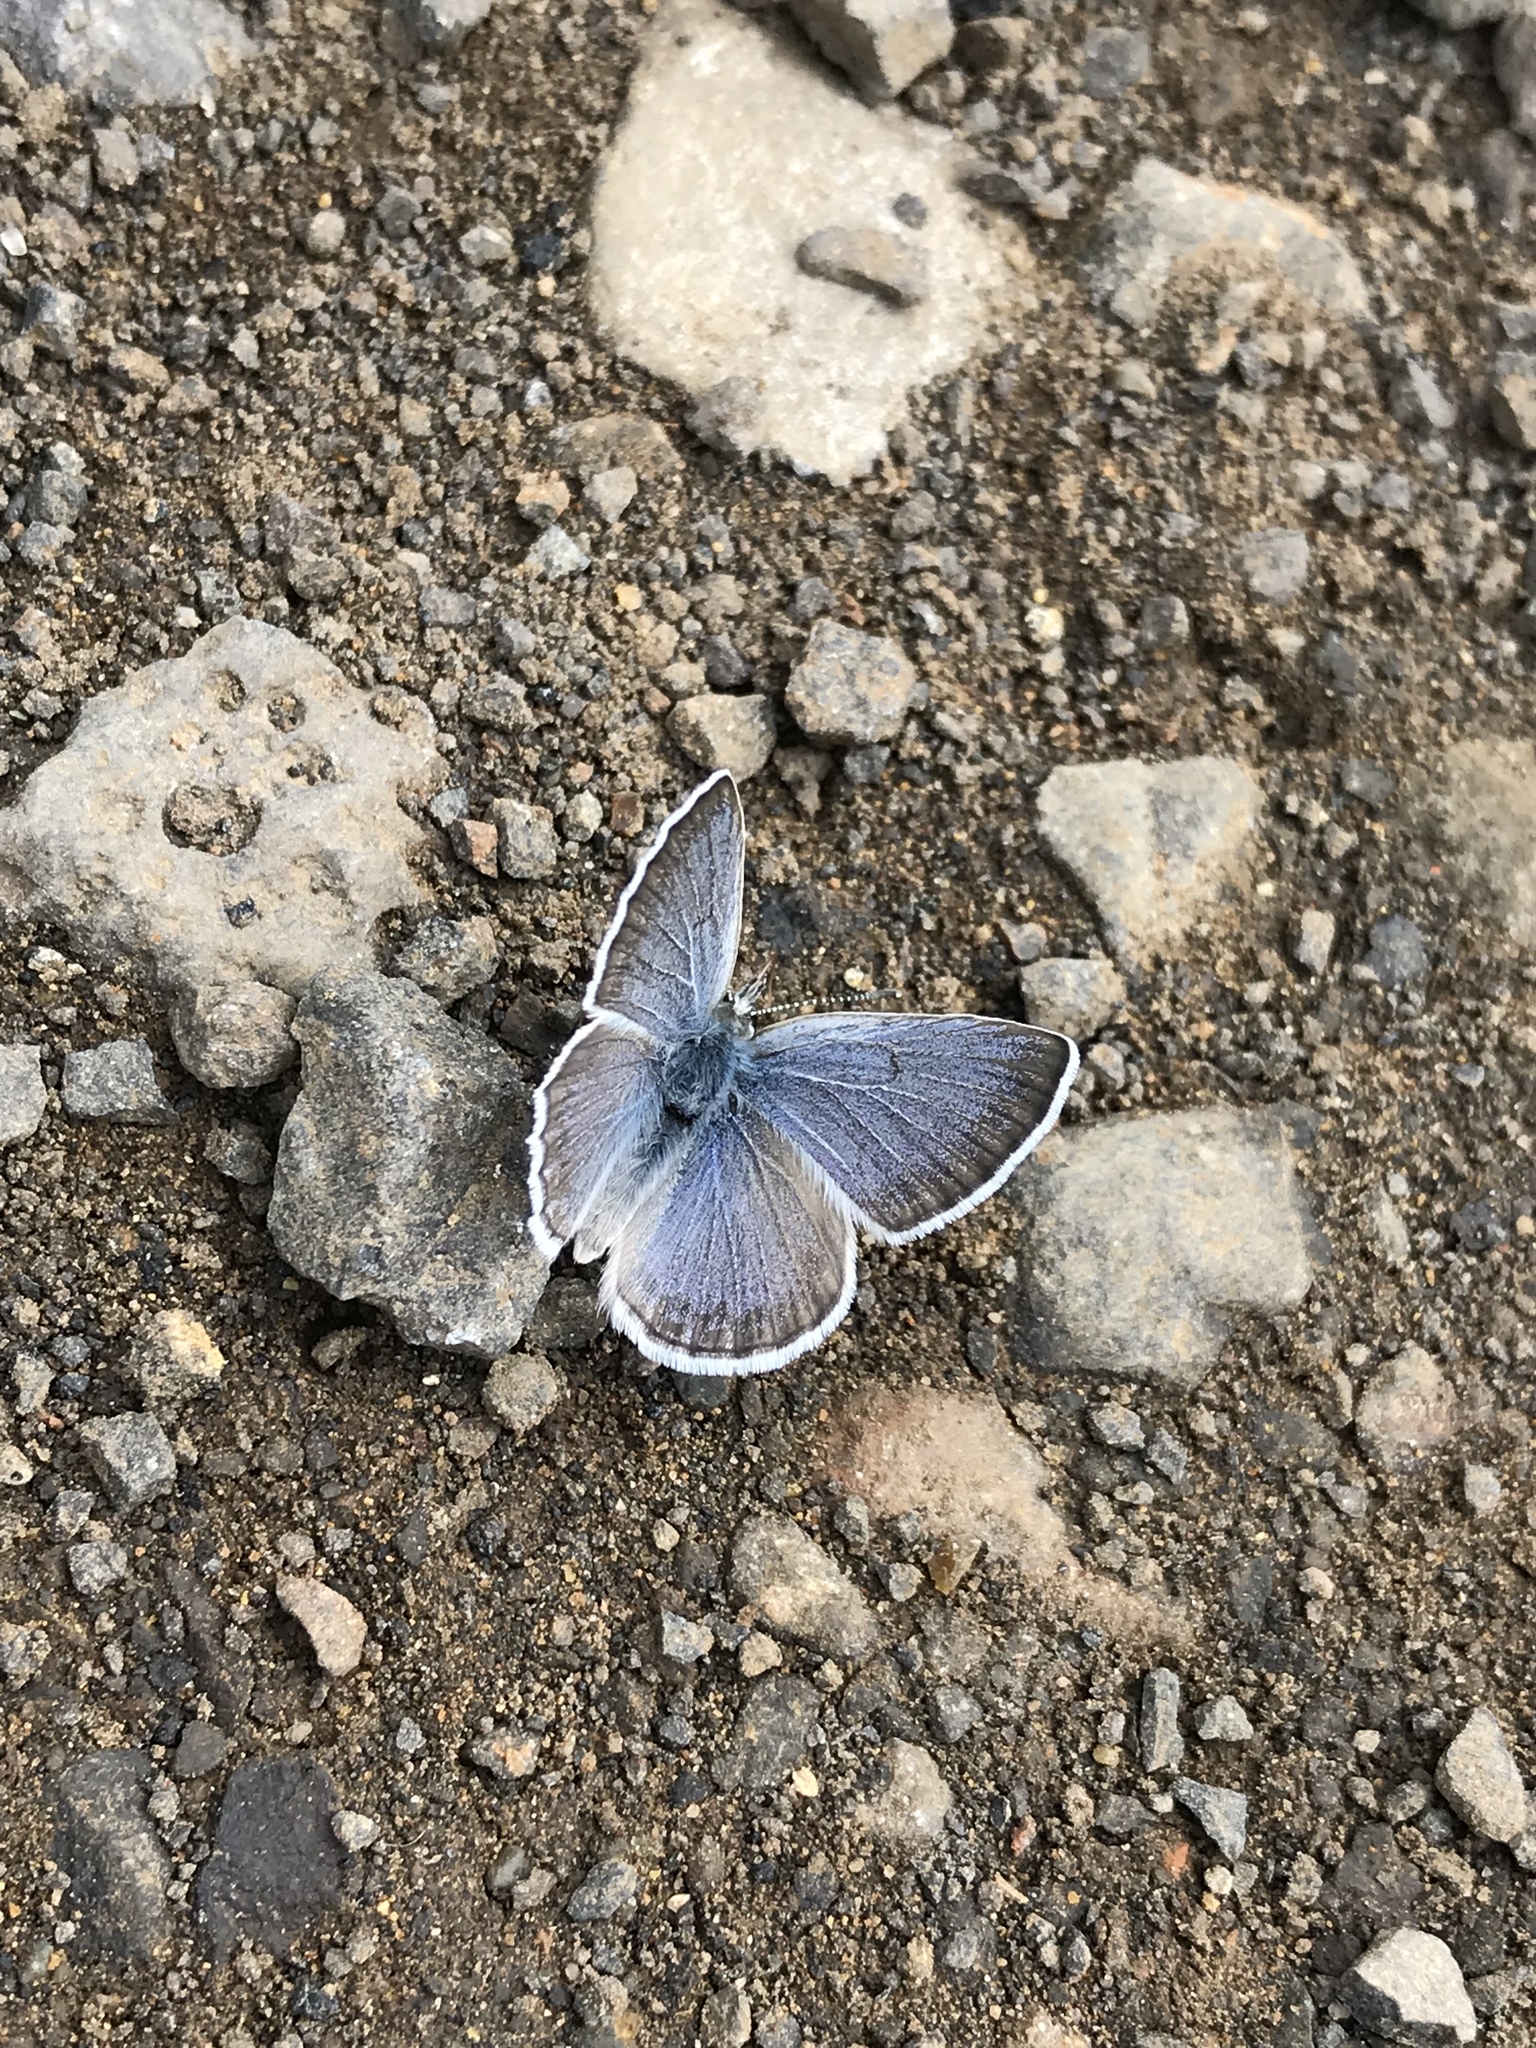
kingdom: Animalia
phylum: Arthropoda
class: Insecta
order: Lepidoptera
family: Lycaenidae
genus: Icaricia
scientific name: Icaricia icarioides
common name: Boisduval's blue
